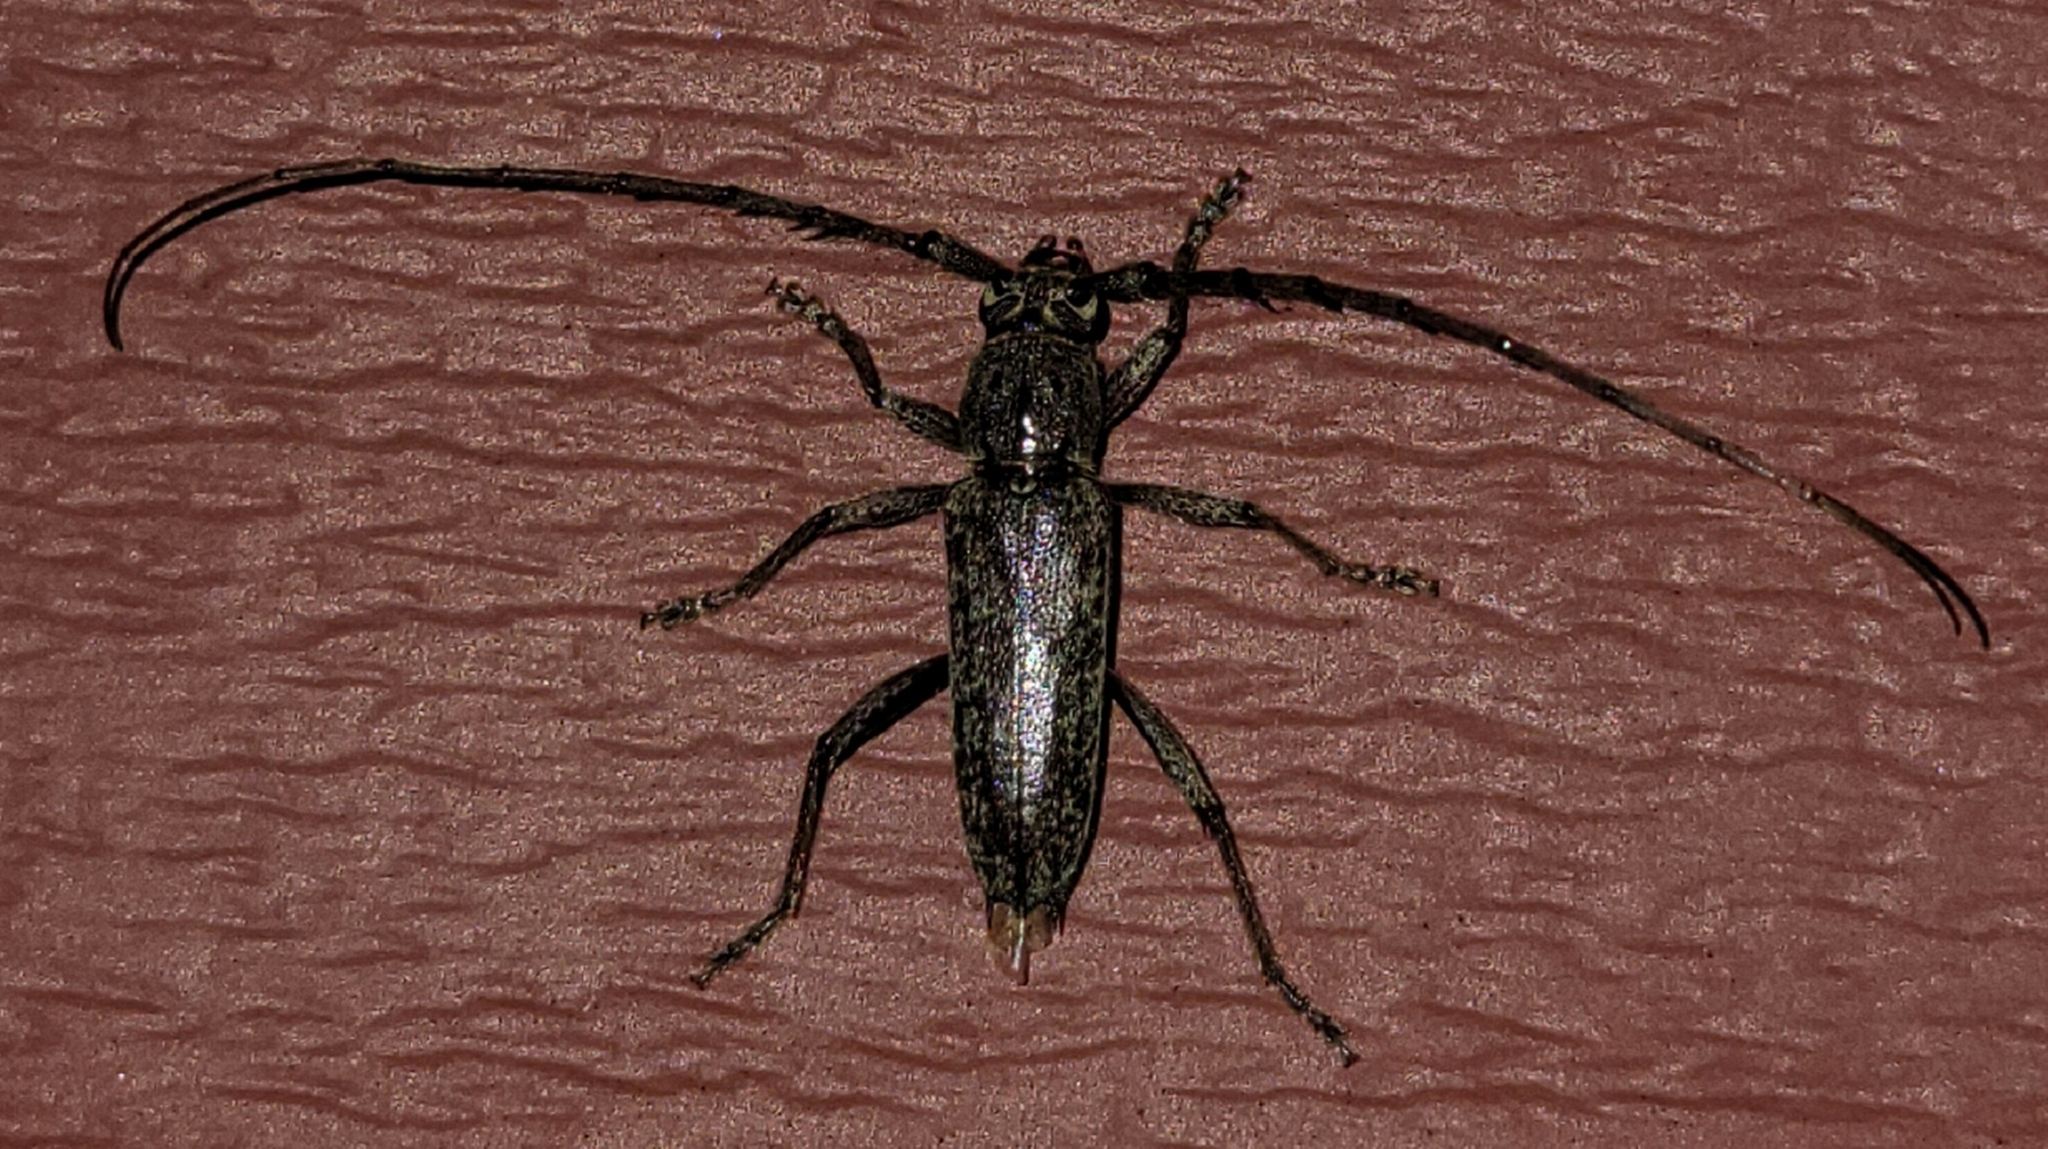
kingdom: Animalia
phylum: Arthropoda
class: Insecta
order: Coleoptera
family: Cerambycidae
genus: Elaphidion
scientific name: Elaphidion mucronatum
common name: Spined oak borer
